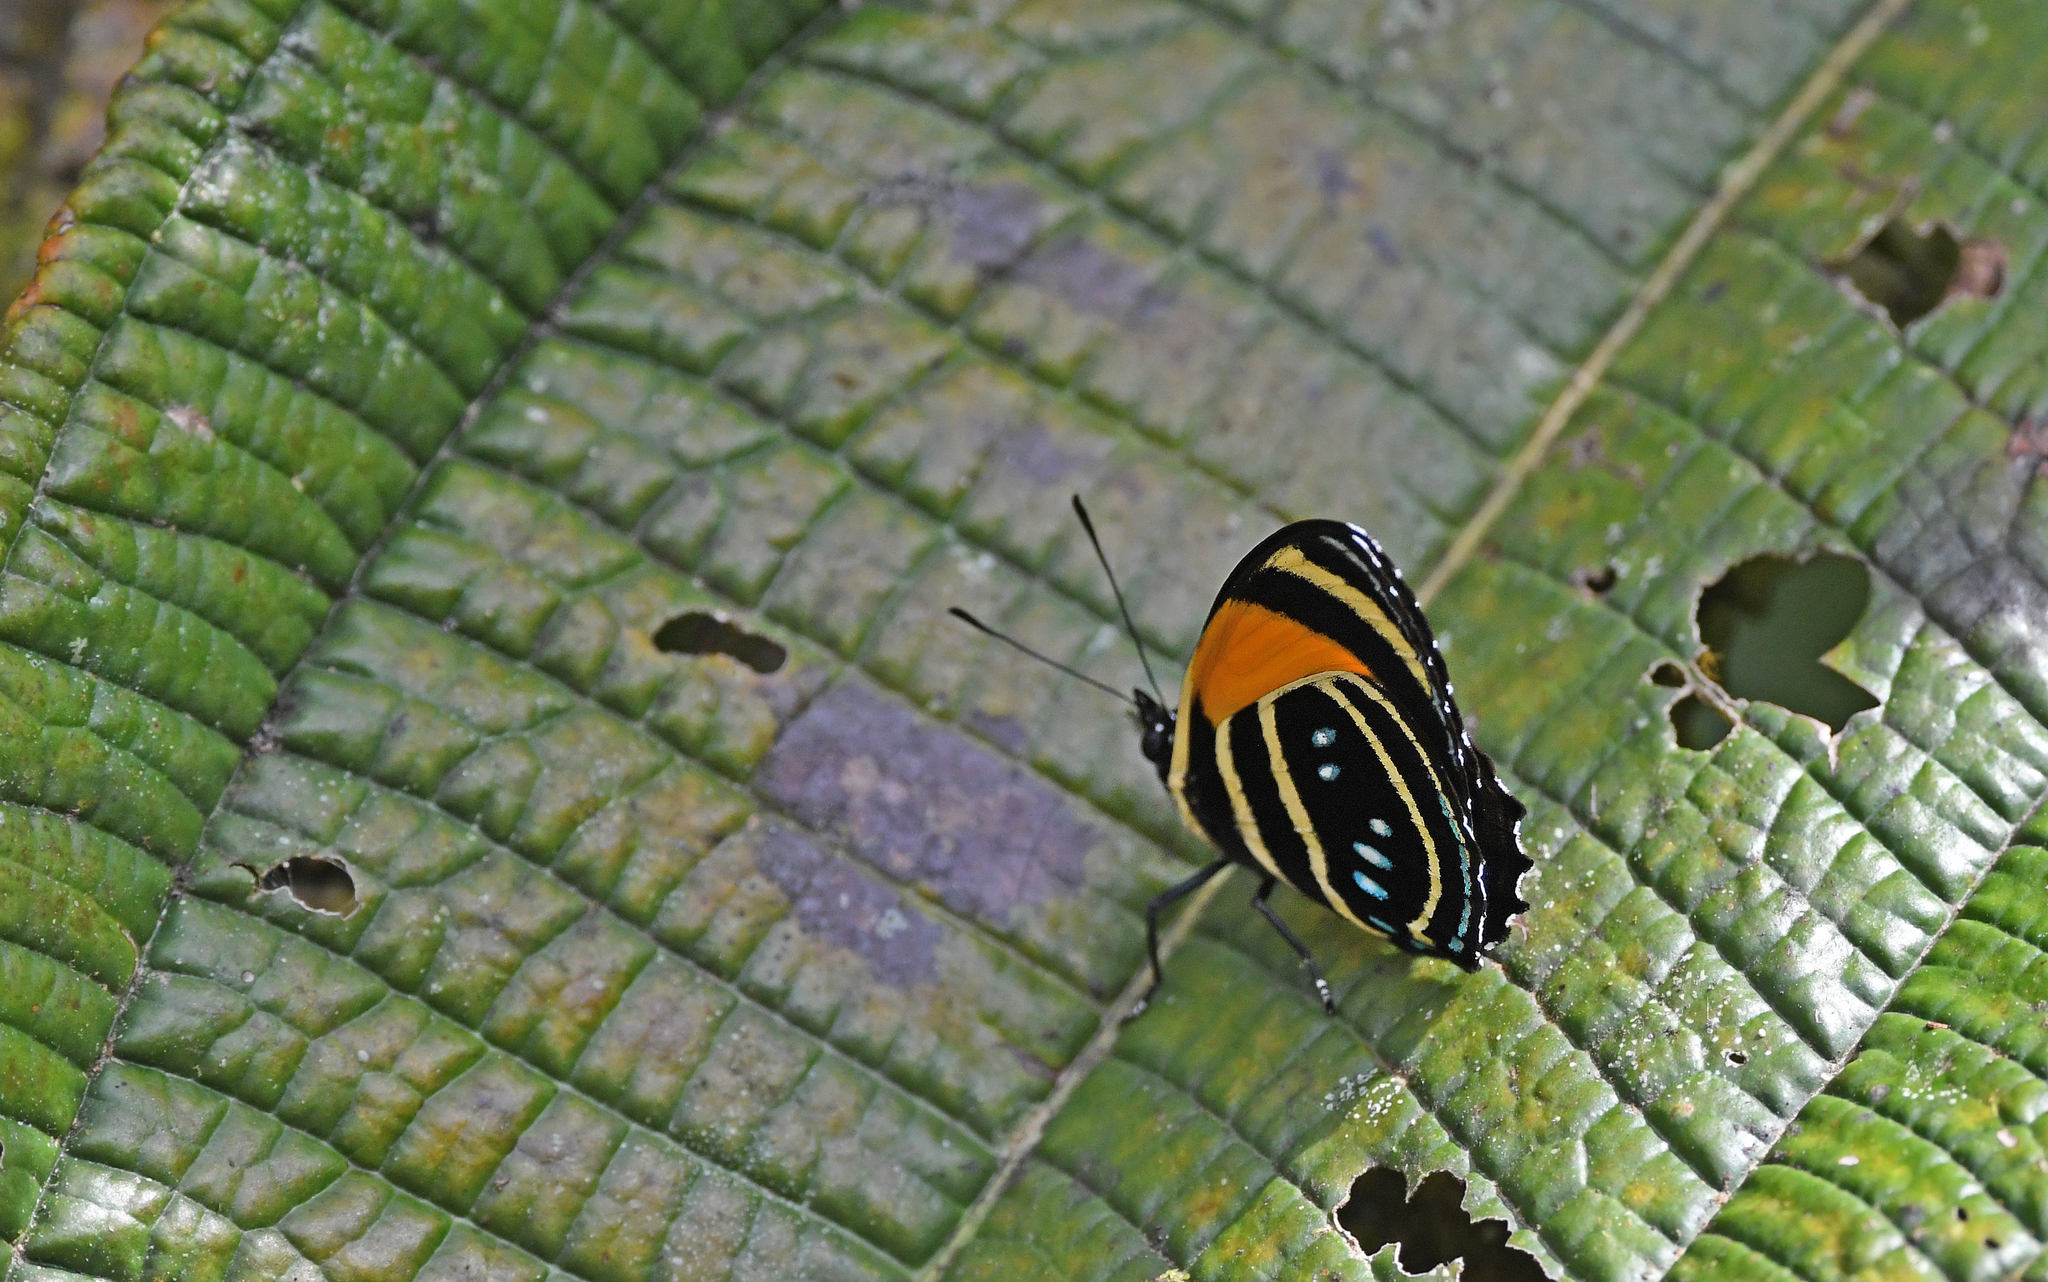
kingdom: Animalia
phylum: Arthropoda
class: Insecta
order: Lepidoptera
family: Nymphalidae
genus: Catagramma
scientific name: Catagramma Callicore lyca
